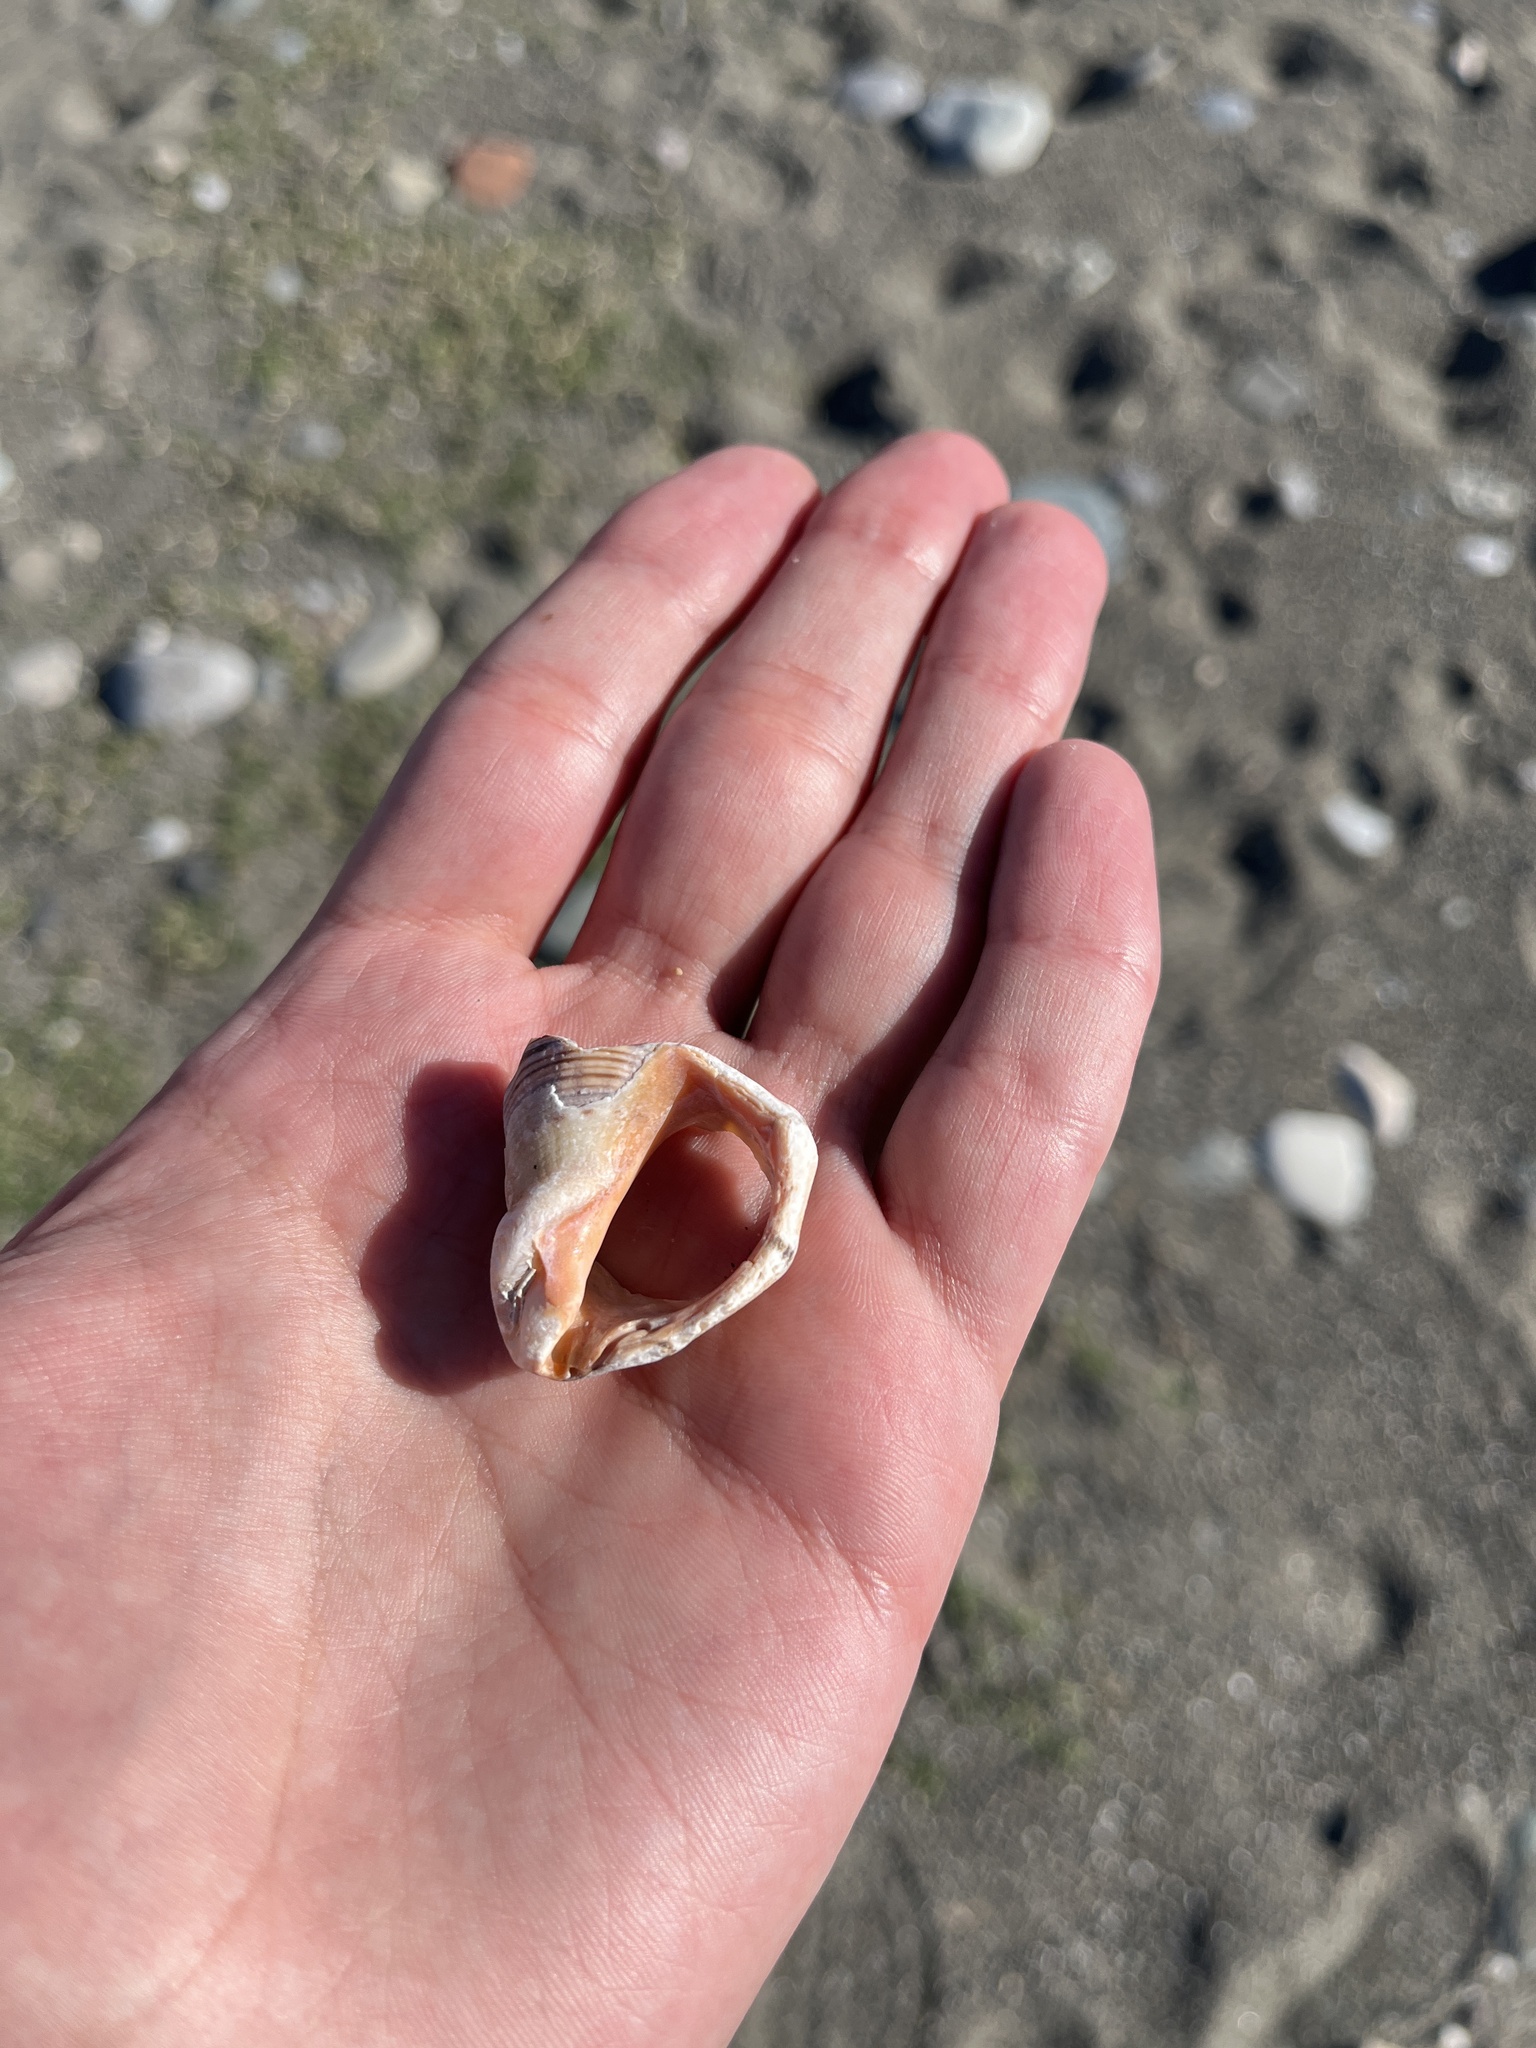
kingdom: Animalia
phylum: Mollusca
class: Gastropoda
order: Neogastropoda
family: Muricidae
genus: Rapana
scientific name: Rapana venosa
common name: Veined rapa whelk
